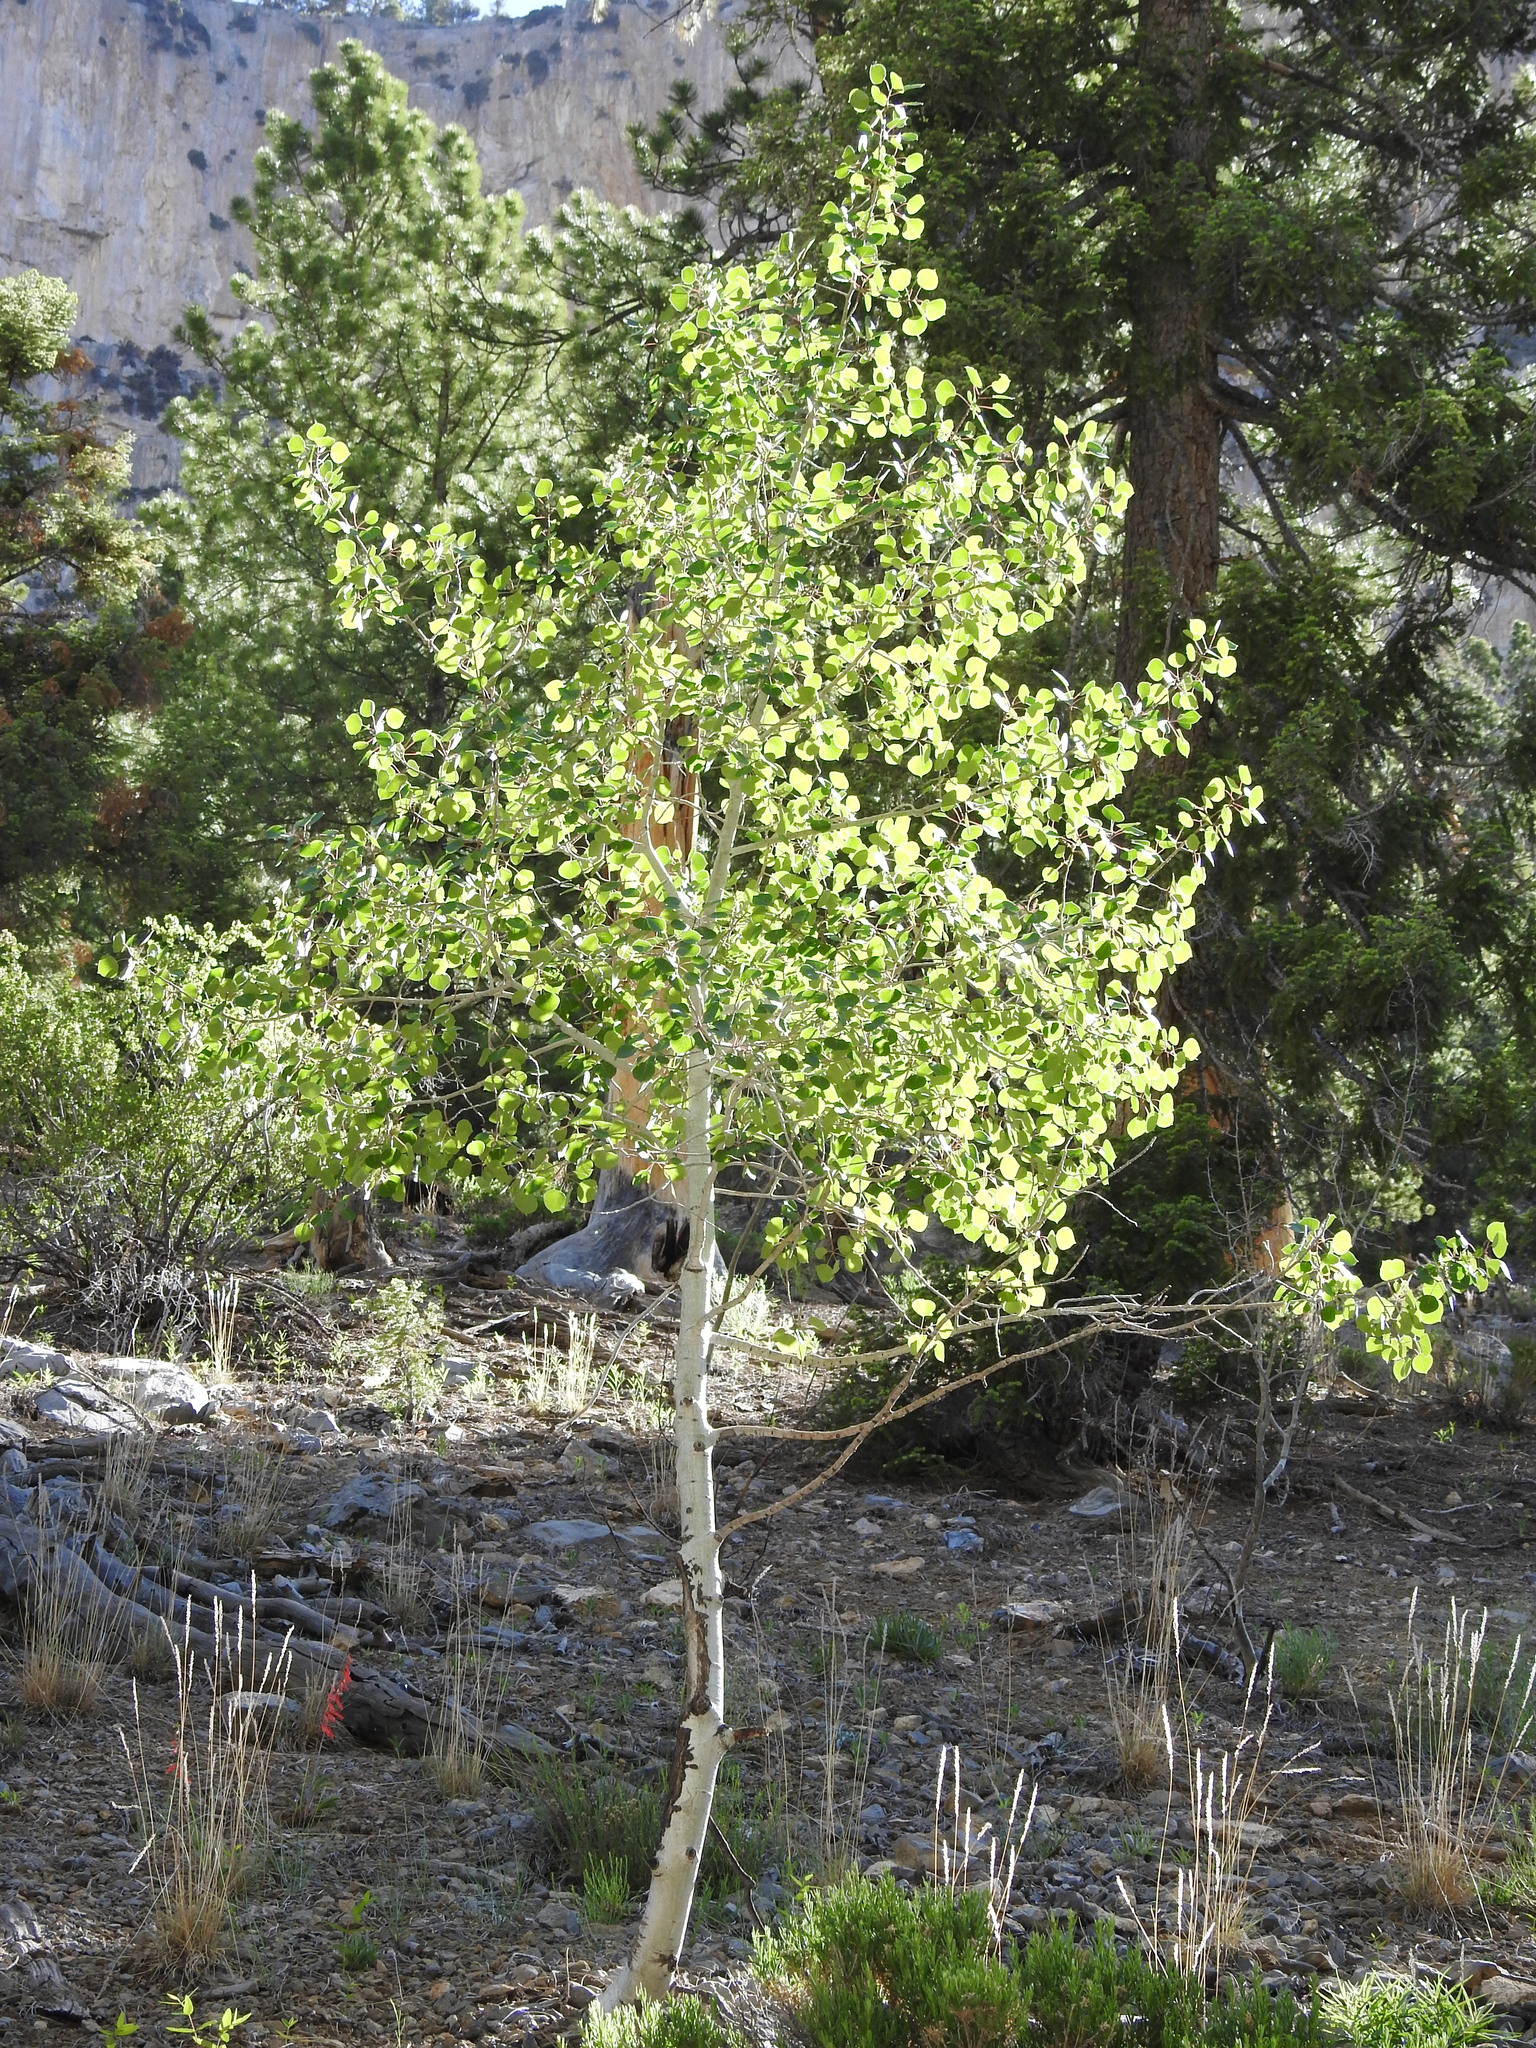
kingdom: Plantae
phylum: Tracheophyta
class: Magnoliopsida
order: Malpighiales
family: Salicaceae
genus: Populus
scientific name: Populus tremuloides
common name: Quaking aspen
